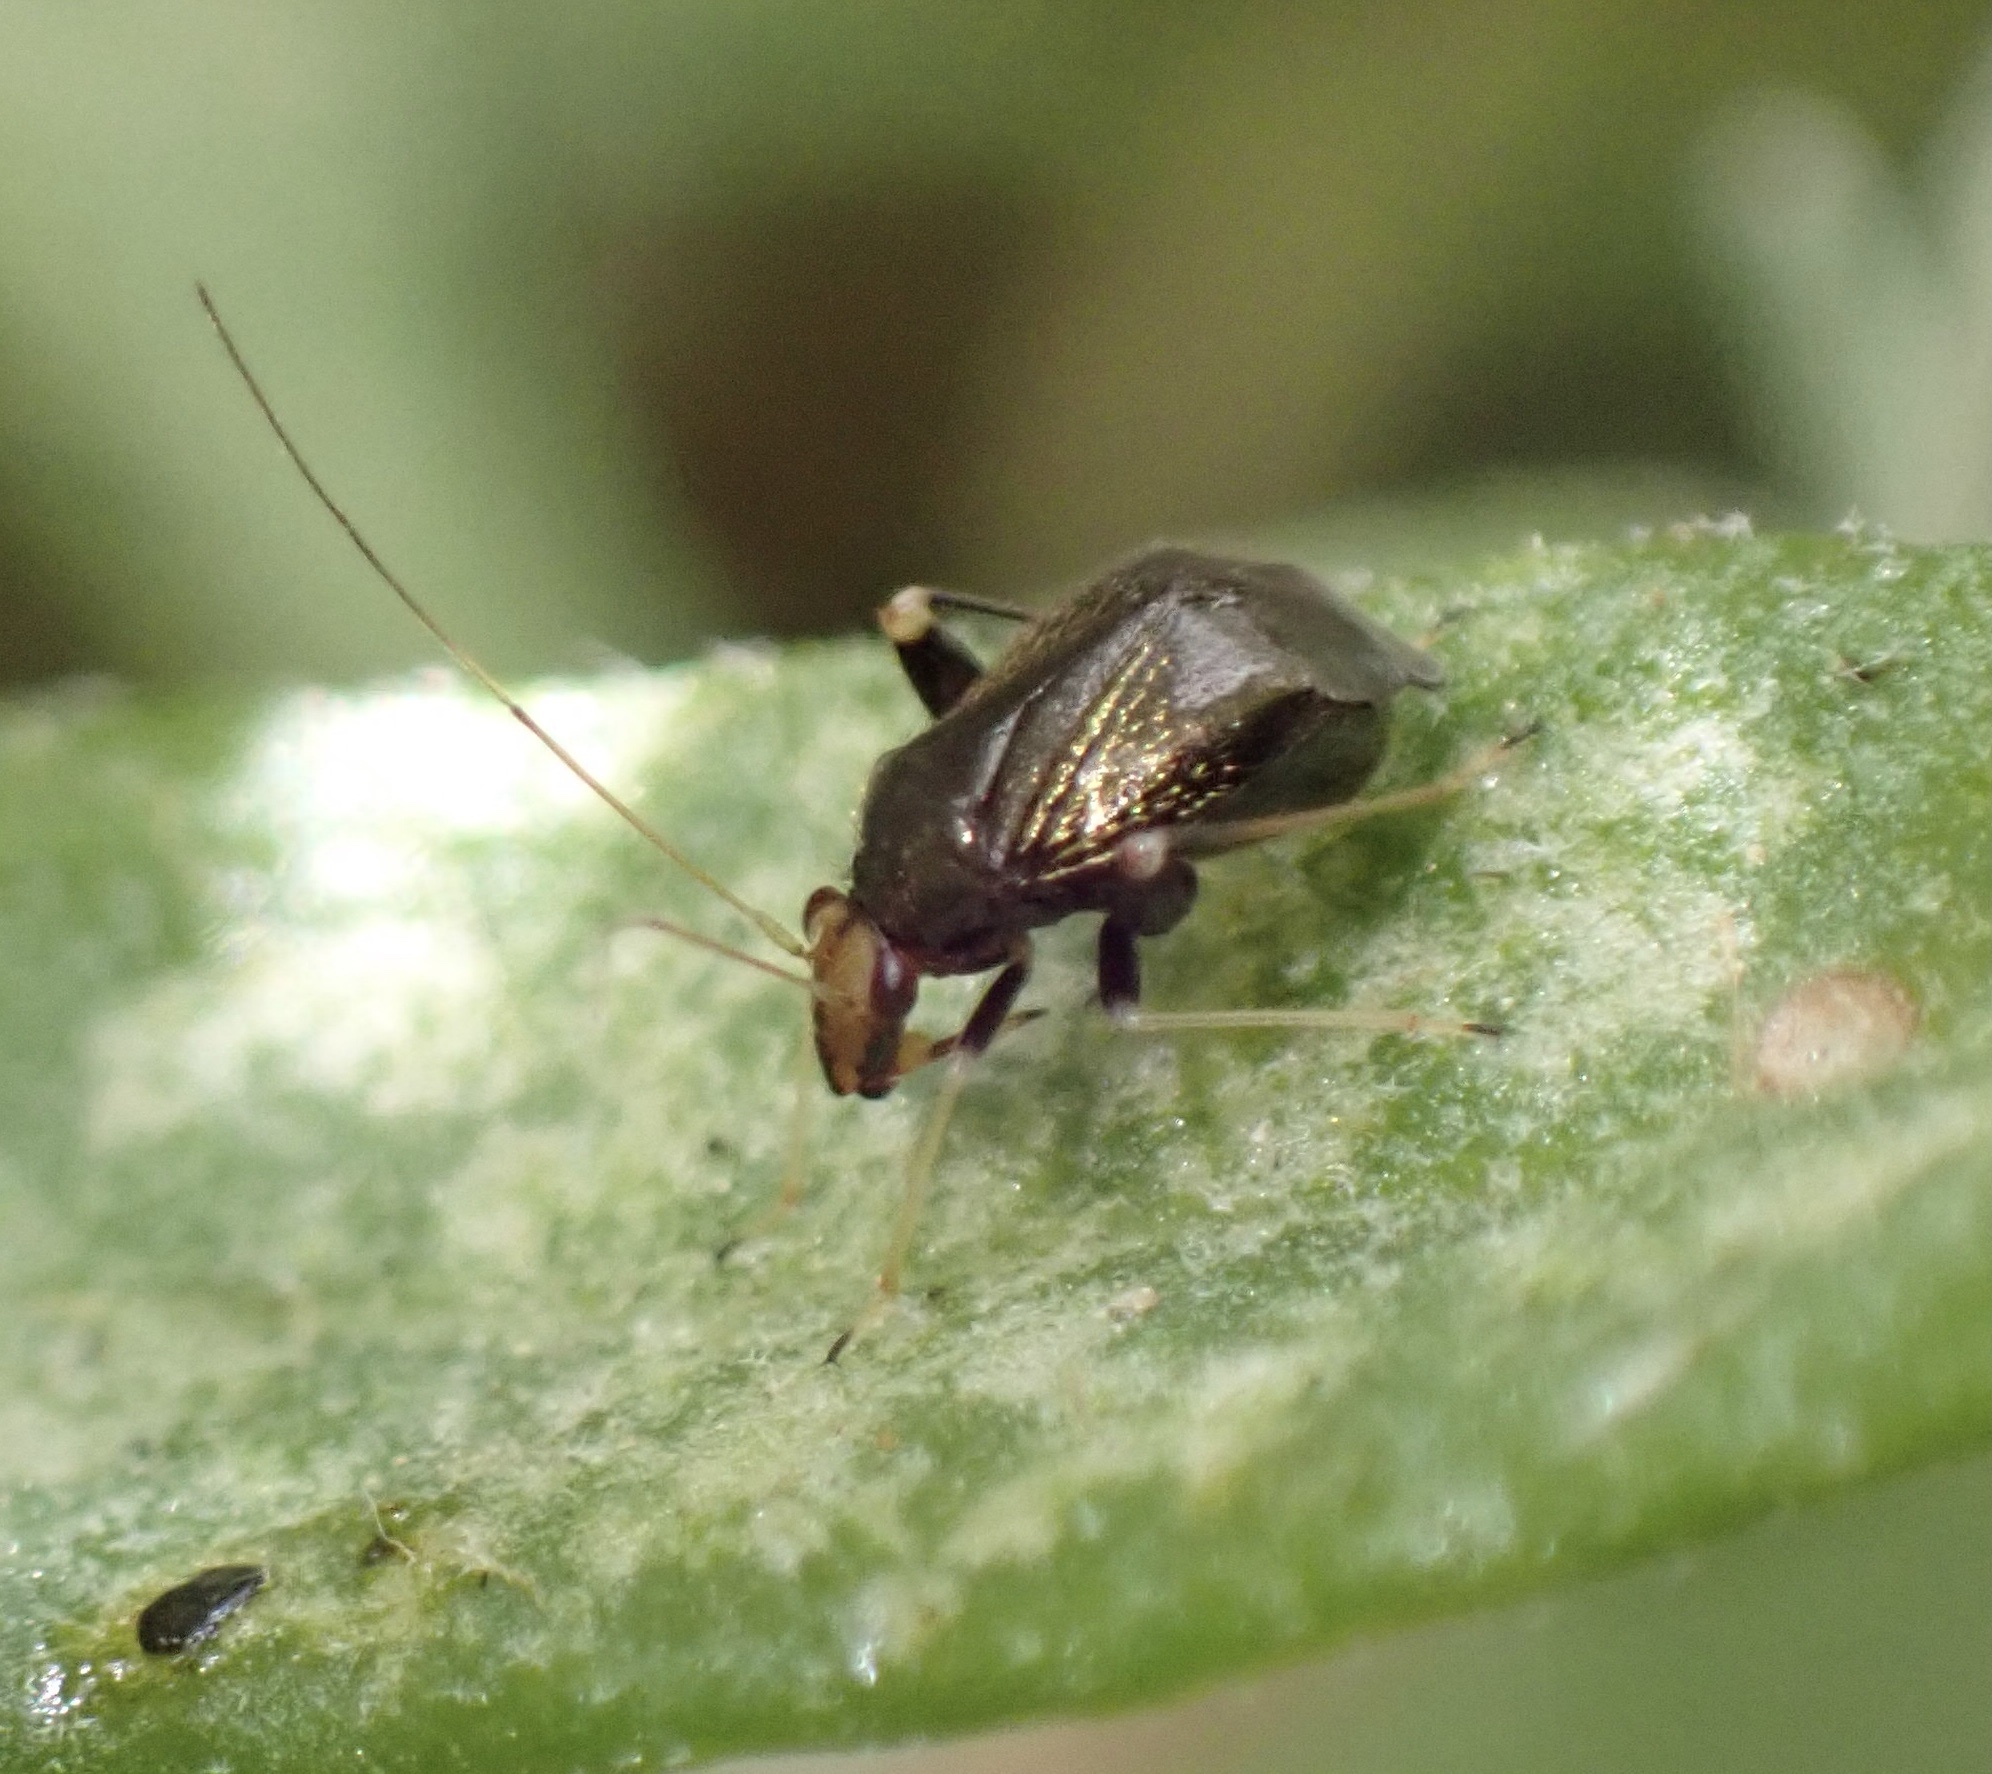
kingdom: Animalia
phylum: Arthropoda
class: Insecta
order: Hemiptera
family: Miridae
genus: Halticus
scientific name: Halticus luteicollis
